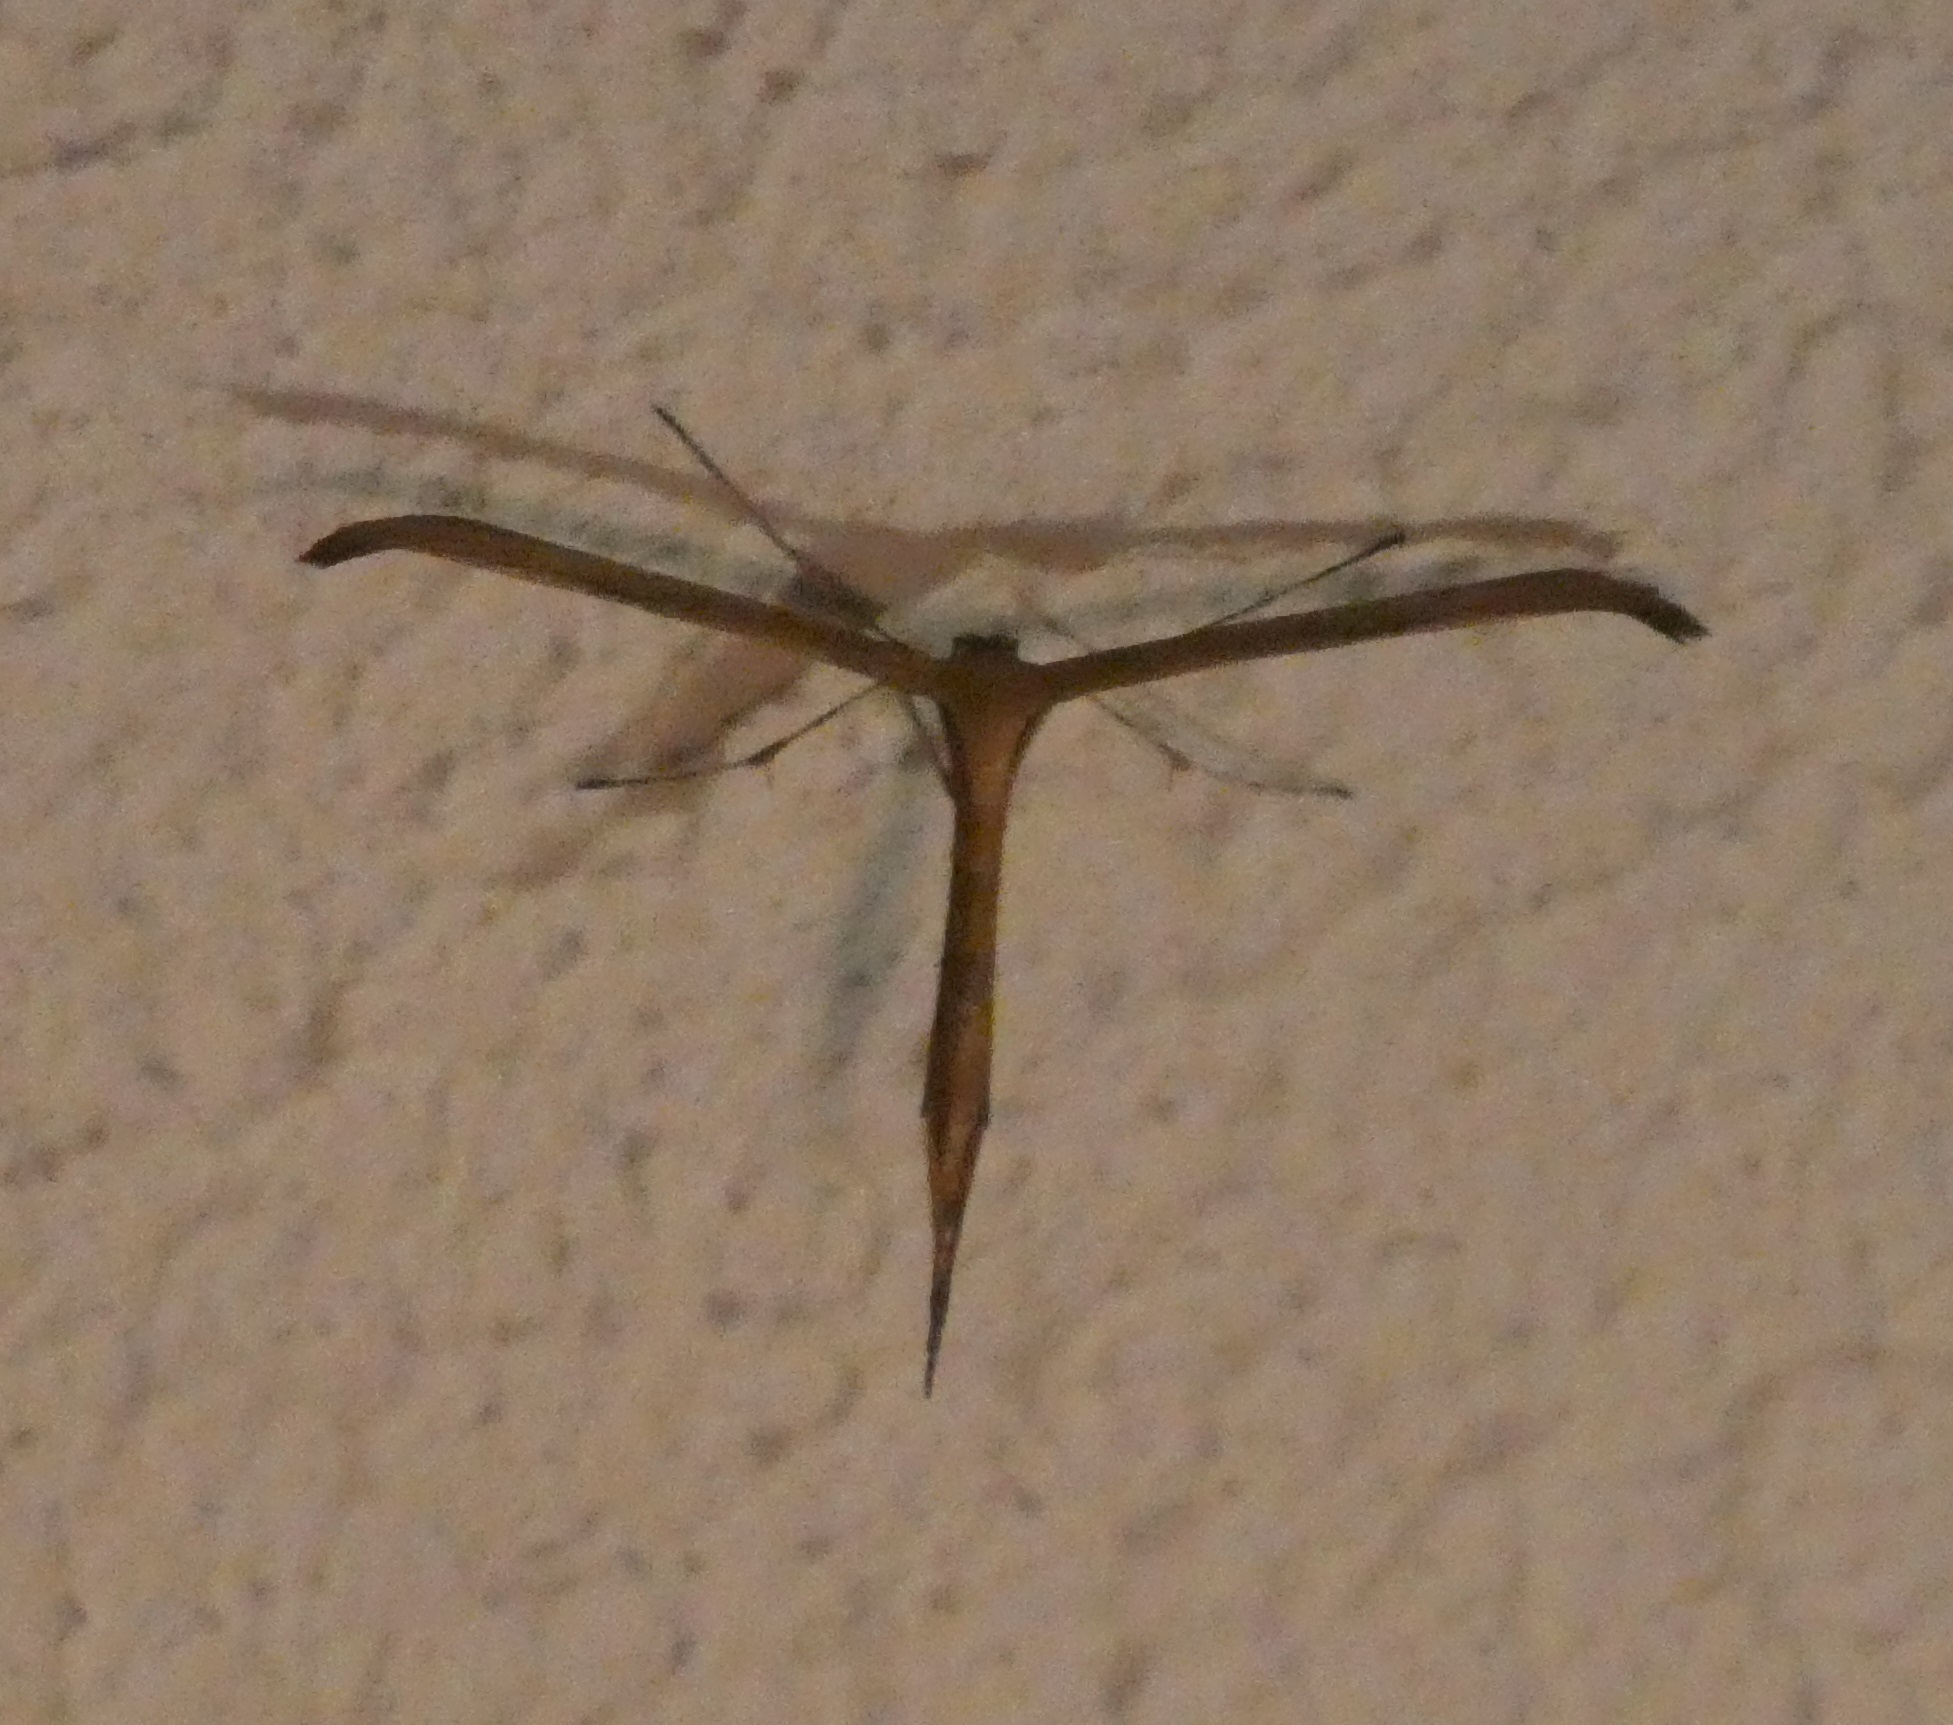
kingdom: Animalia
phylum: Arthropoda
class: Insecta
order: Lepidoptera
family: Pterophoridae
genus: Emmelina
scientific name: Emmelina monodactyla
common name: Common plume
